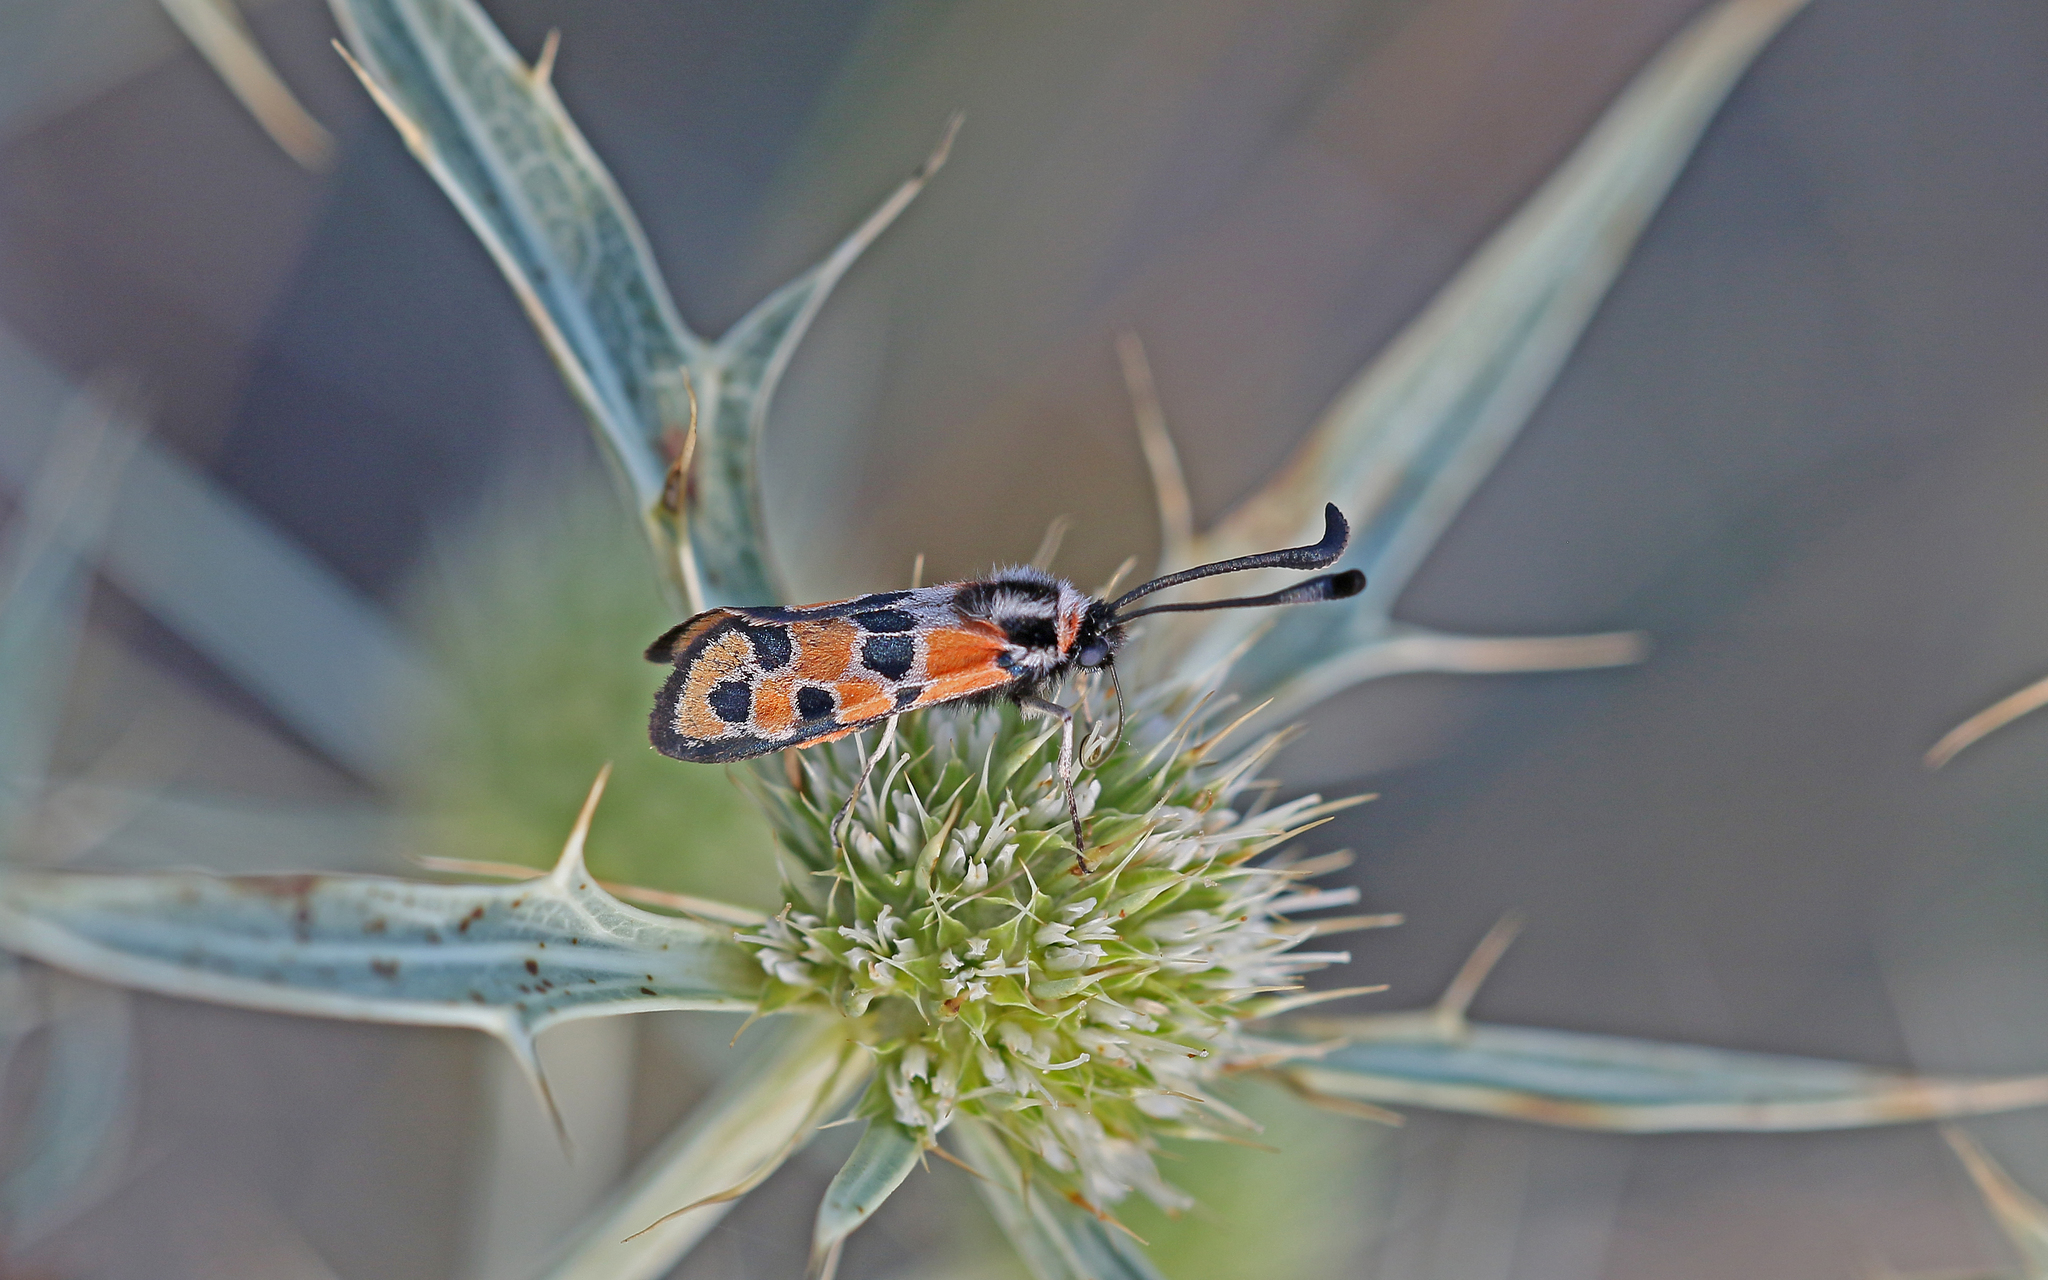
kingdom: Animalia
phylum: Arthropoda
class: Insecta
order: Lepidoptera
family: Zygaenidae
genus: Zygaena
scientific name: Zygaena fausta
